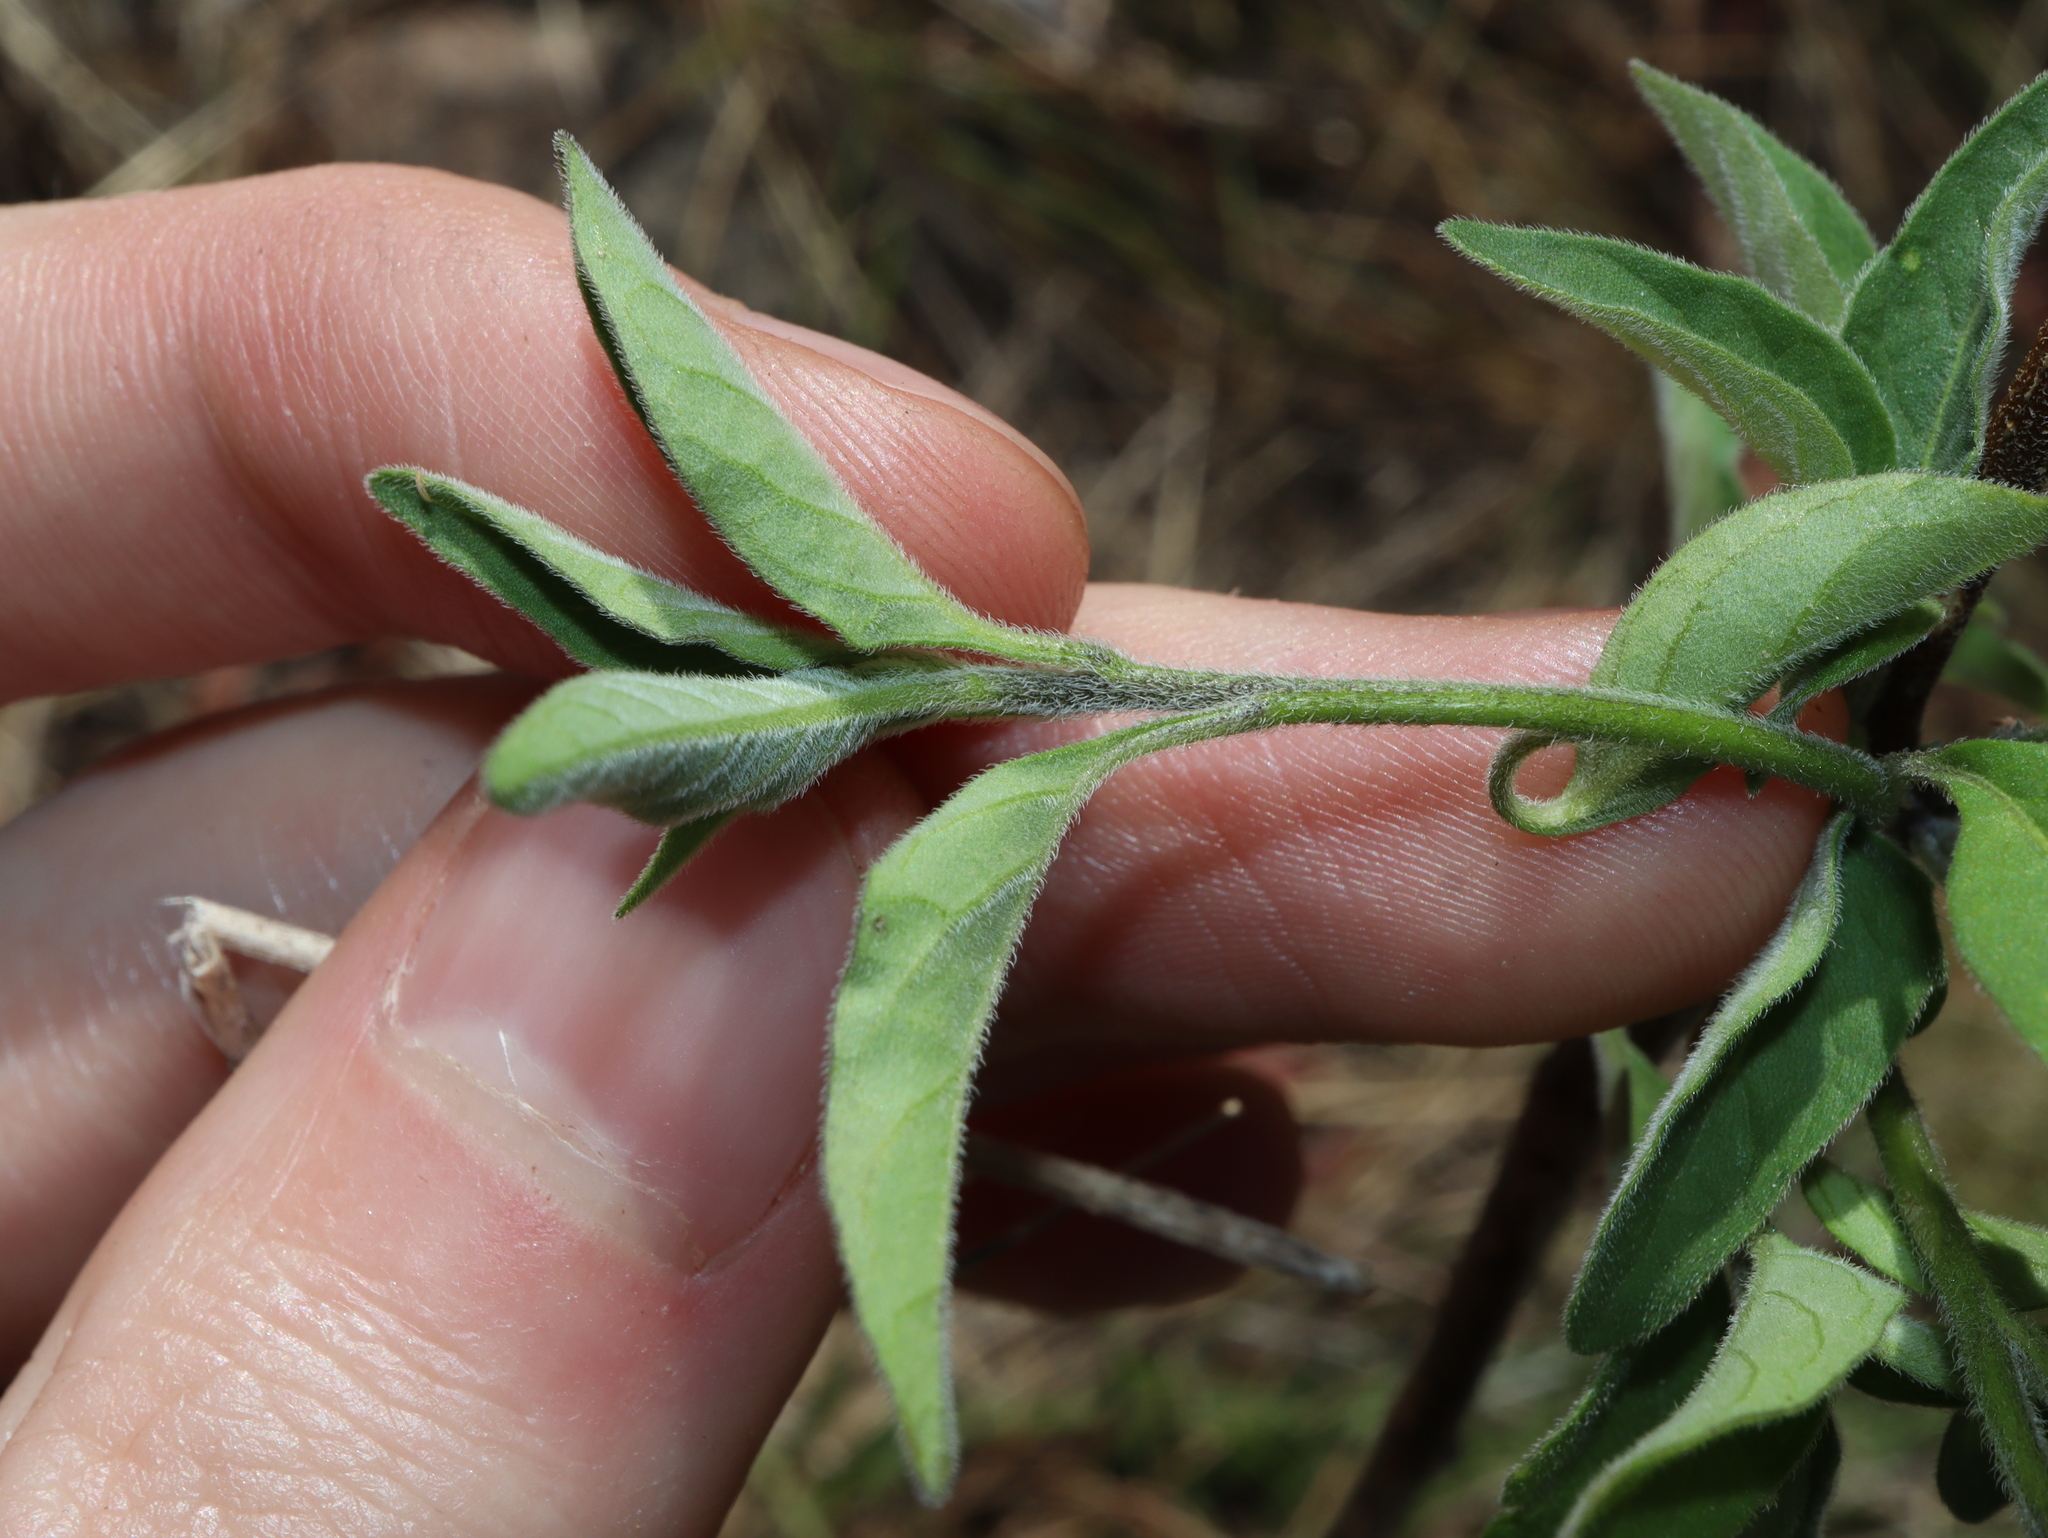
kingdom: Plantae
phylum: Tracheophyta
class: Magnoliopsida
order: Solanales
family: Solanaceae
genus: Solanum
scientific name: Solanum chenopodioides
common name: Tall nightshade
